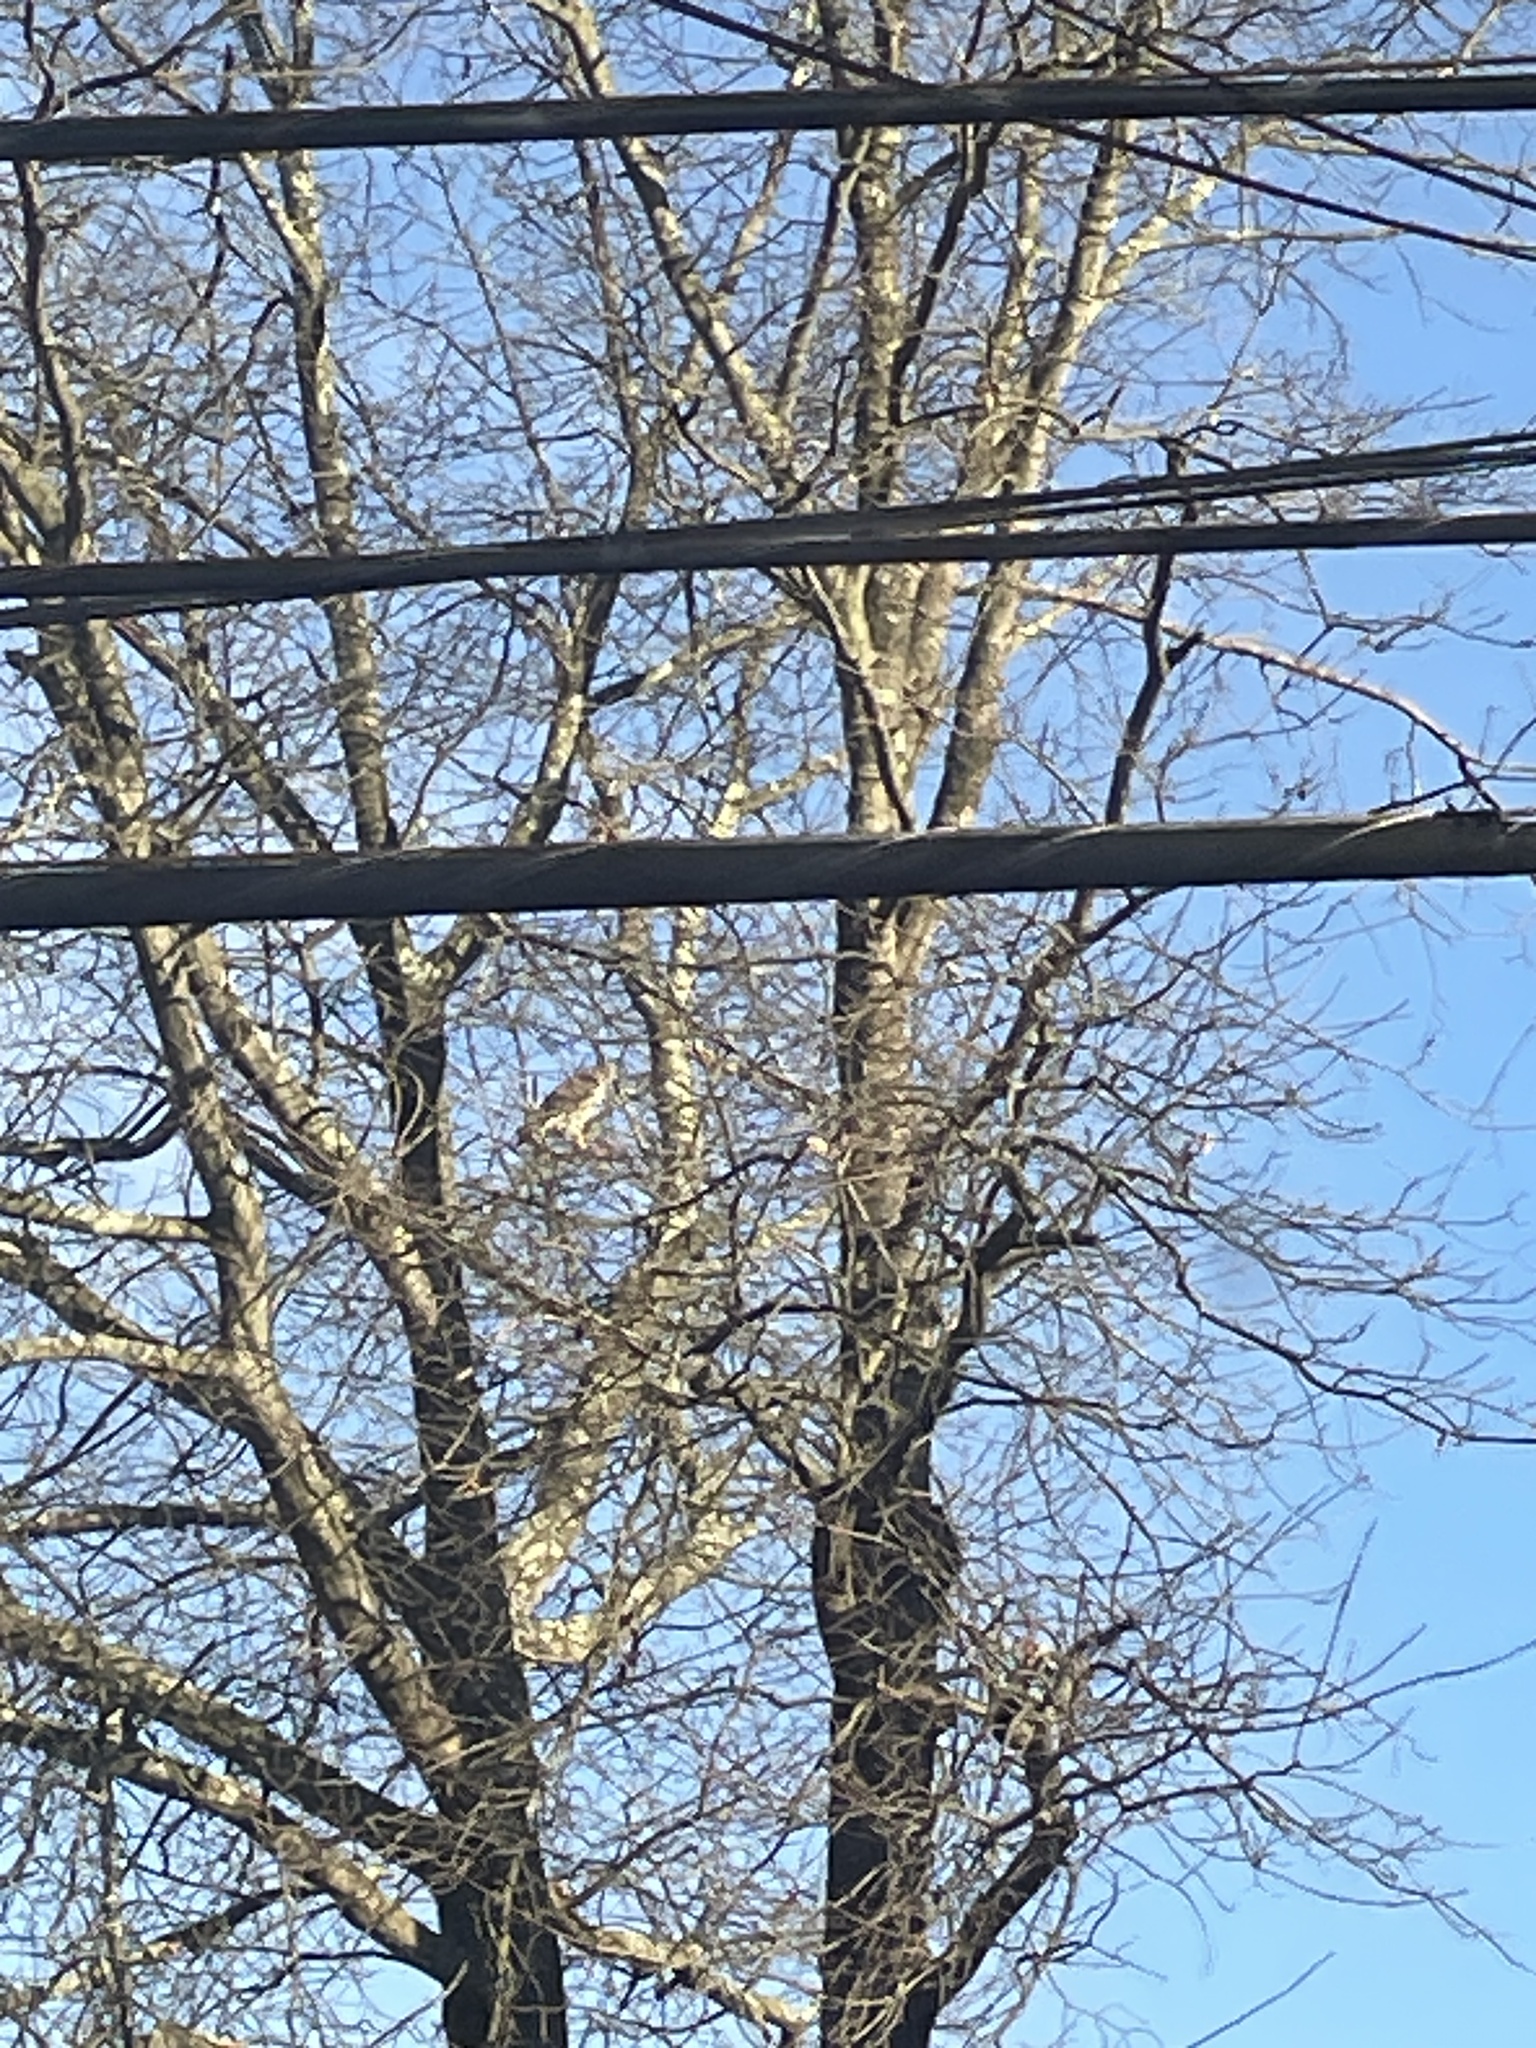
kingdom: Animalia
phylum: Chordata
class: Aves
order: Accipitriformes
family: Accipitridae
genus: Buteo
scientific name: Buteo jamaicensis
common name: Red-tailed hawk
